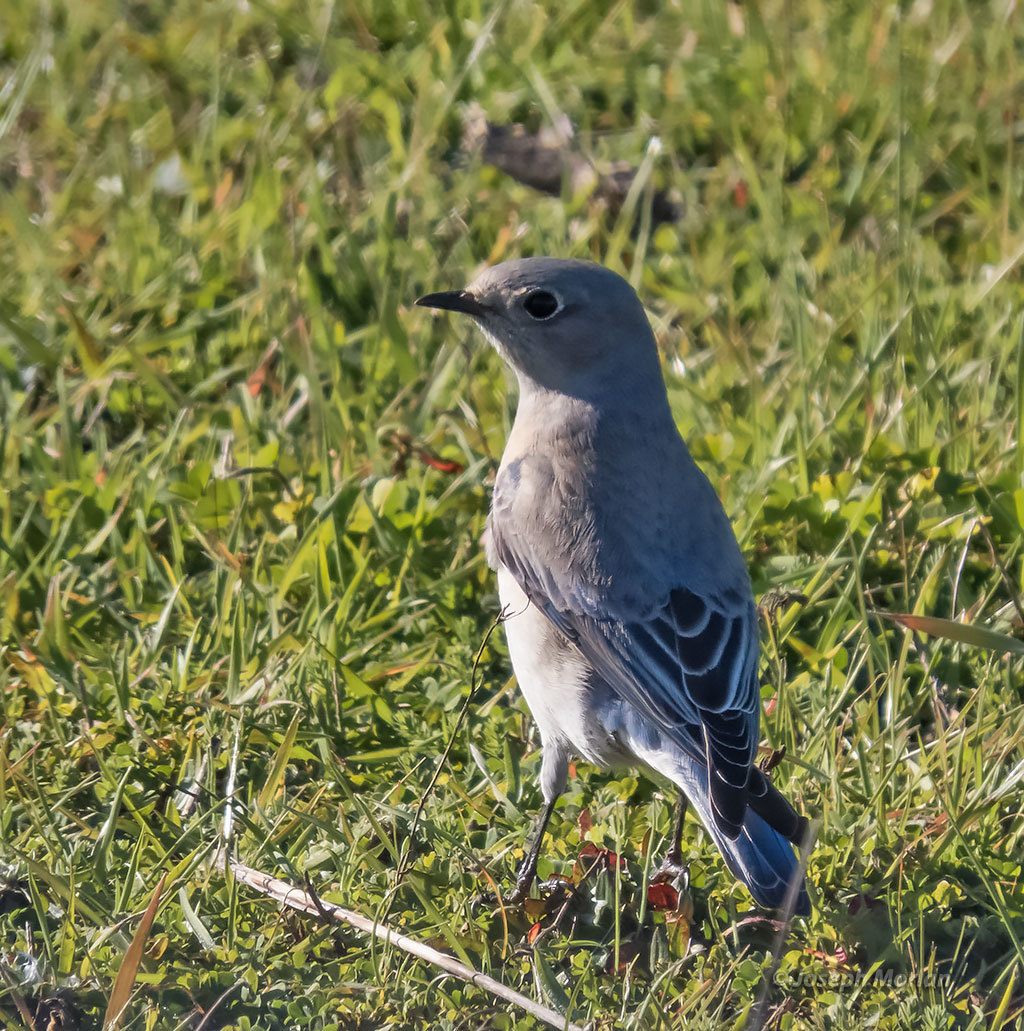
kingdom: Animalia
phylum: Chordata
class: Aves
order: Passeriformes
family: Turdidae
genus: Sialia
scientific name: Sialia mexicana
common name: Western bluebird
